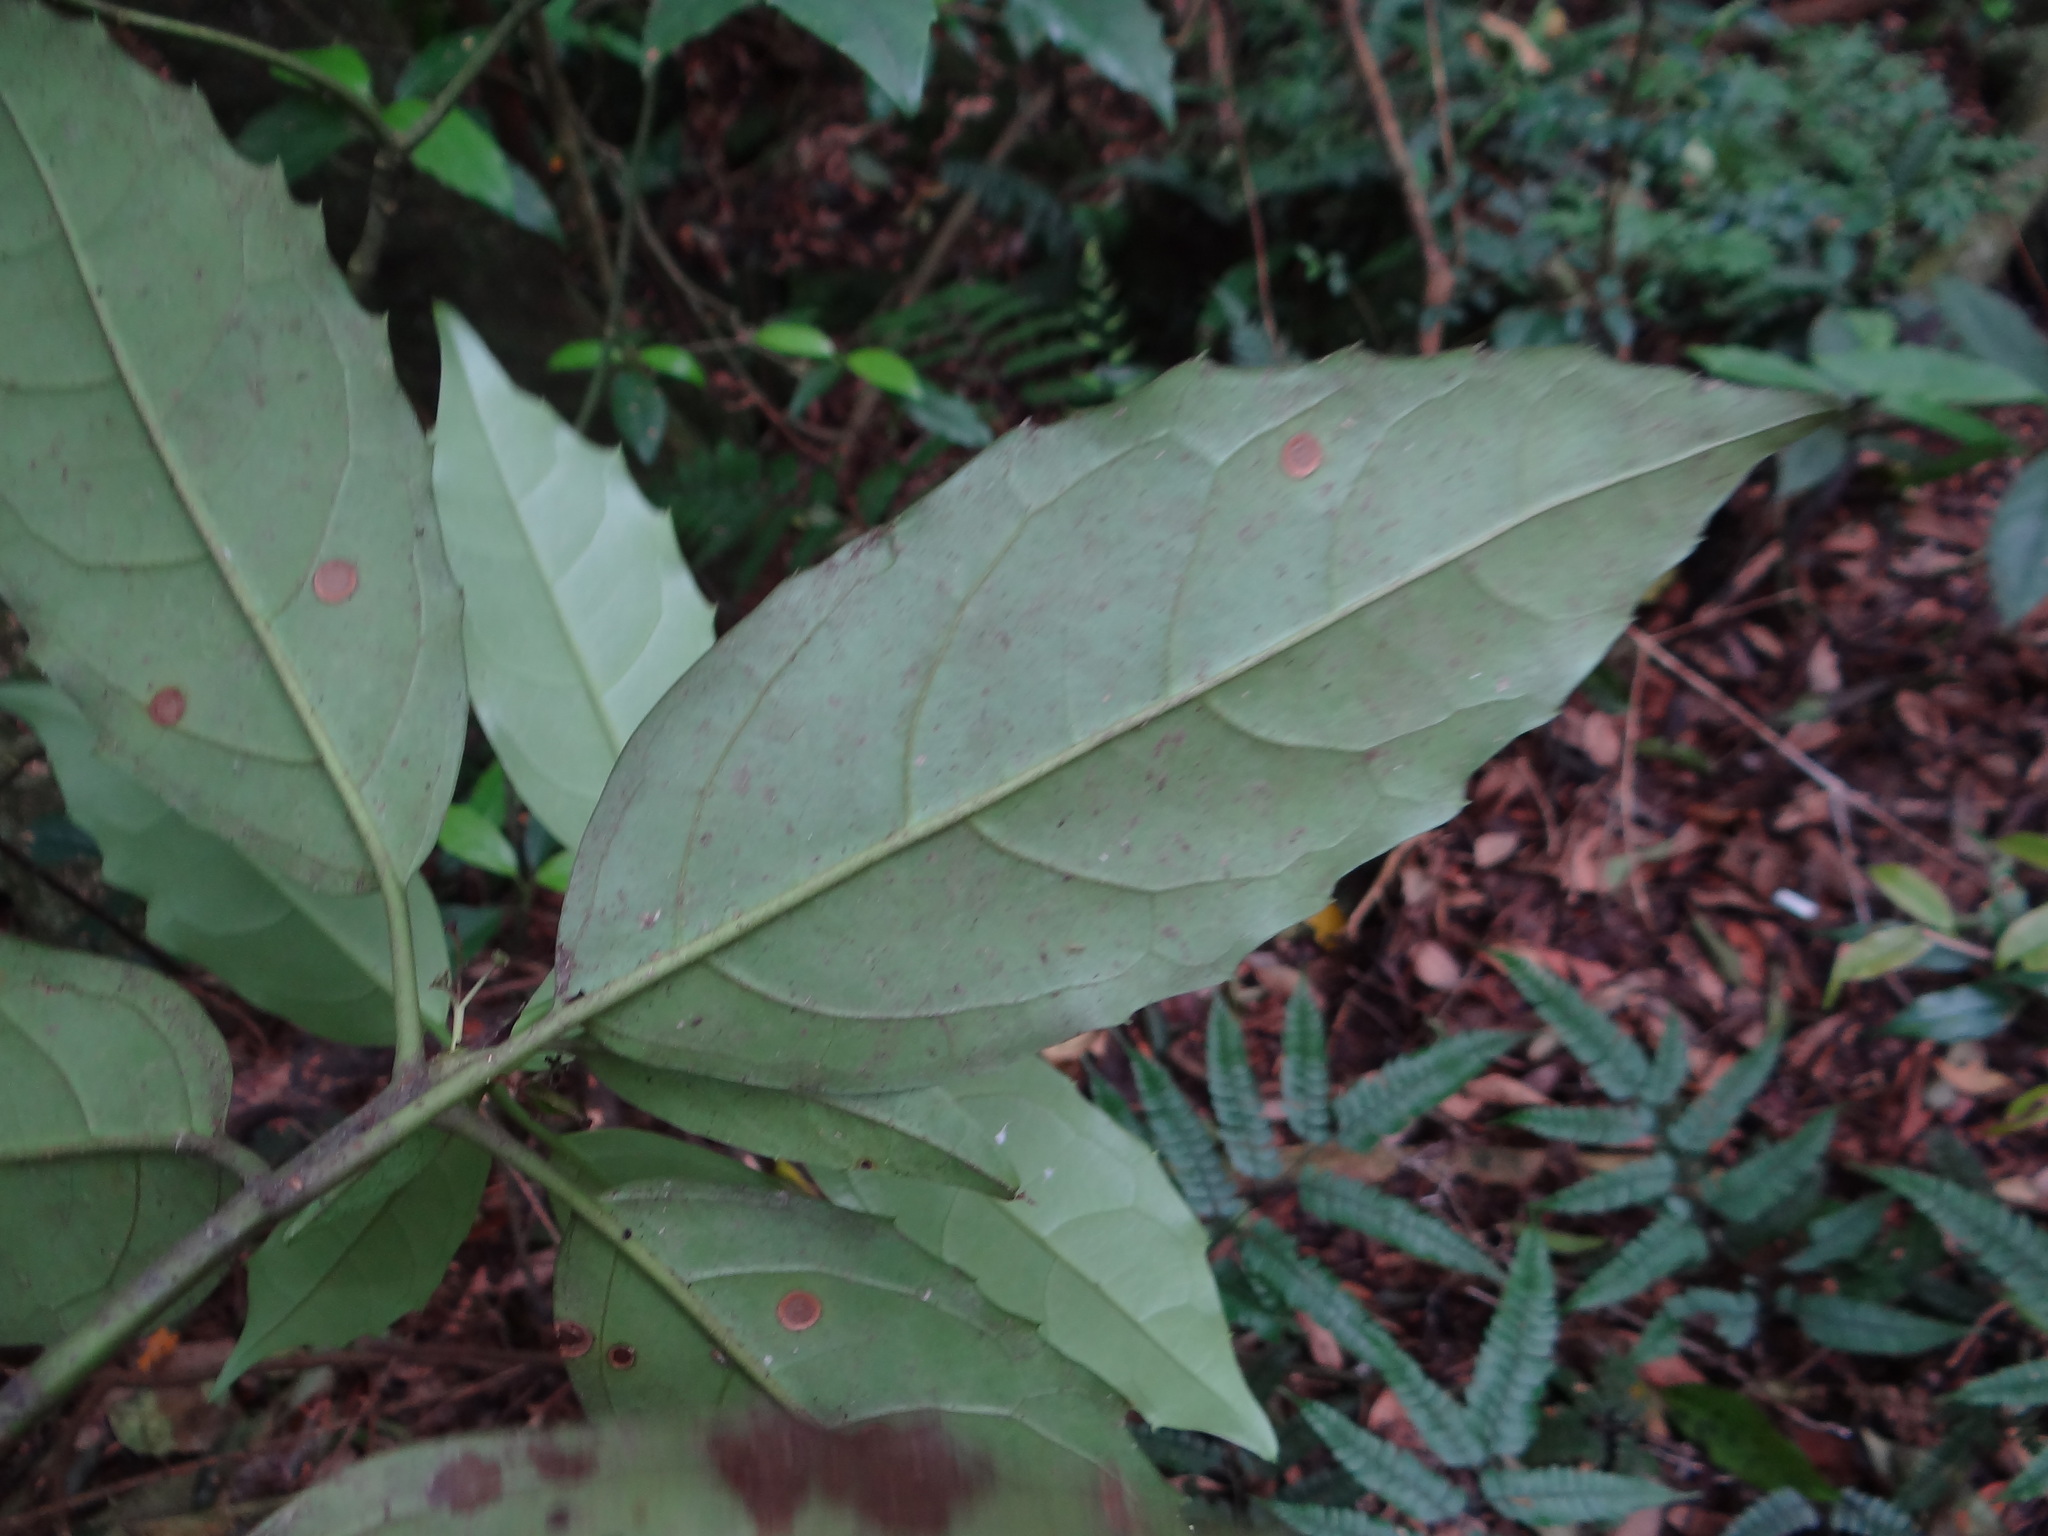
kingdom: Plantae
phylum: Tracheophyta
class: Magnoliopsida
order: Garryales
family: Garryaceae
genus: Aucuba
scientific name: Aucuba japonica
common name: Spotted-laurel
